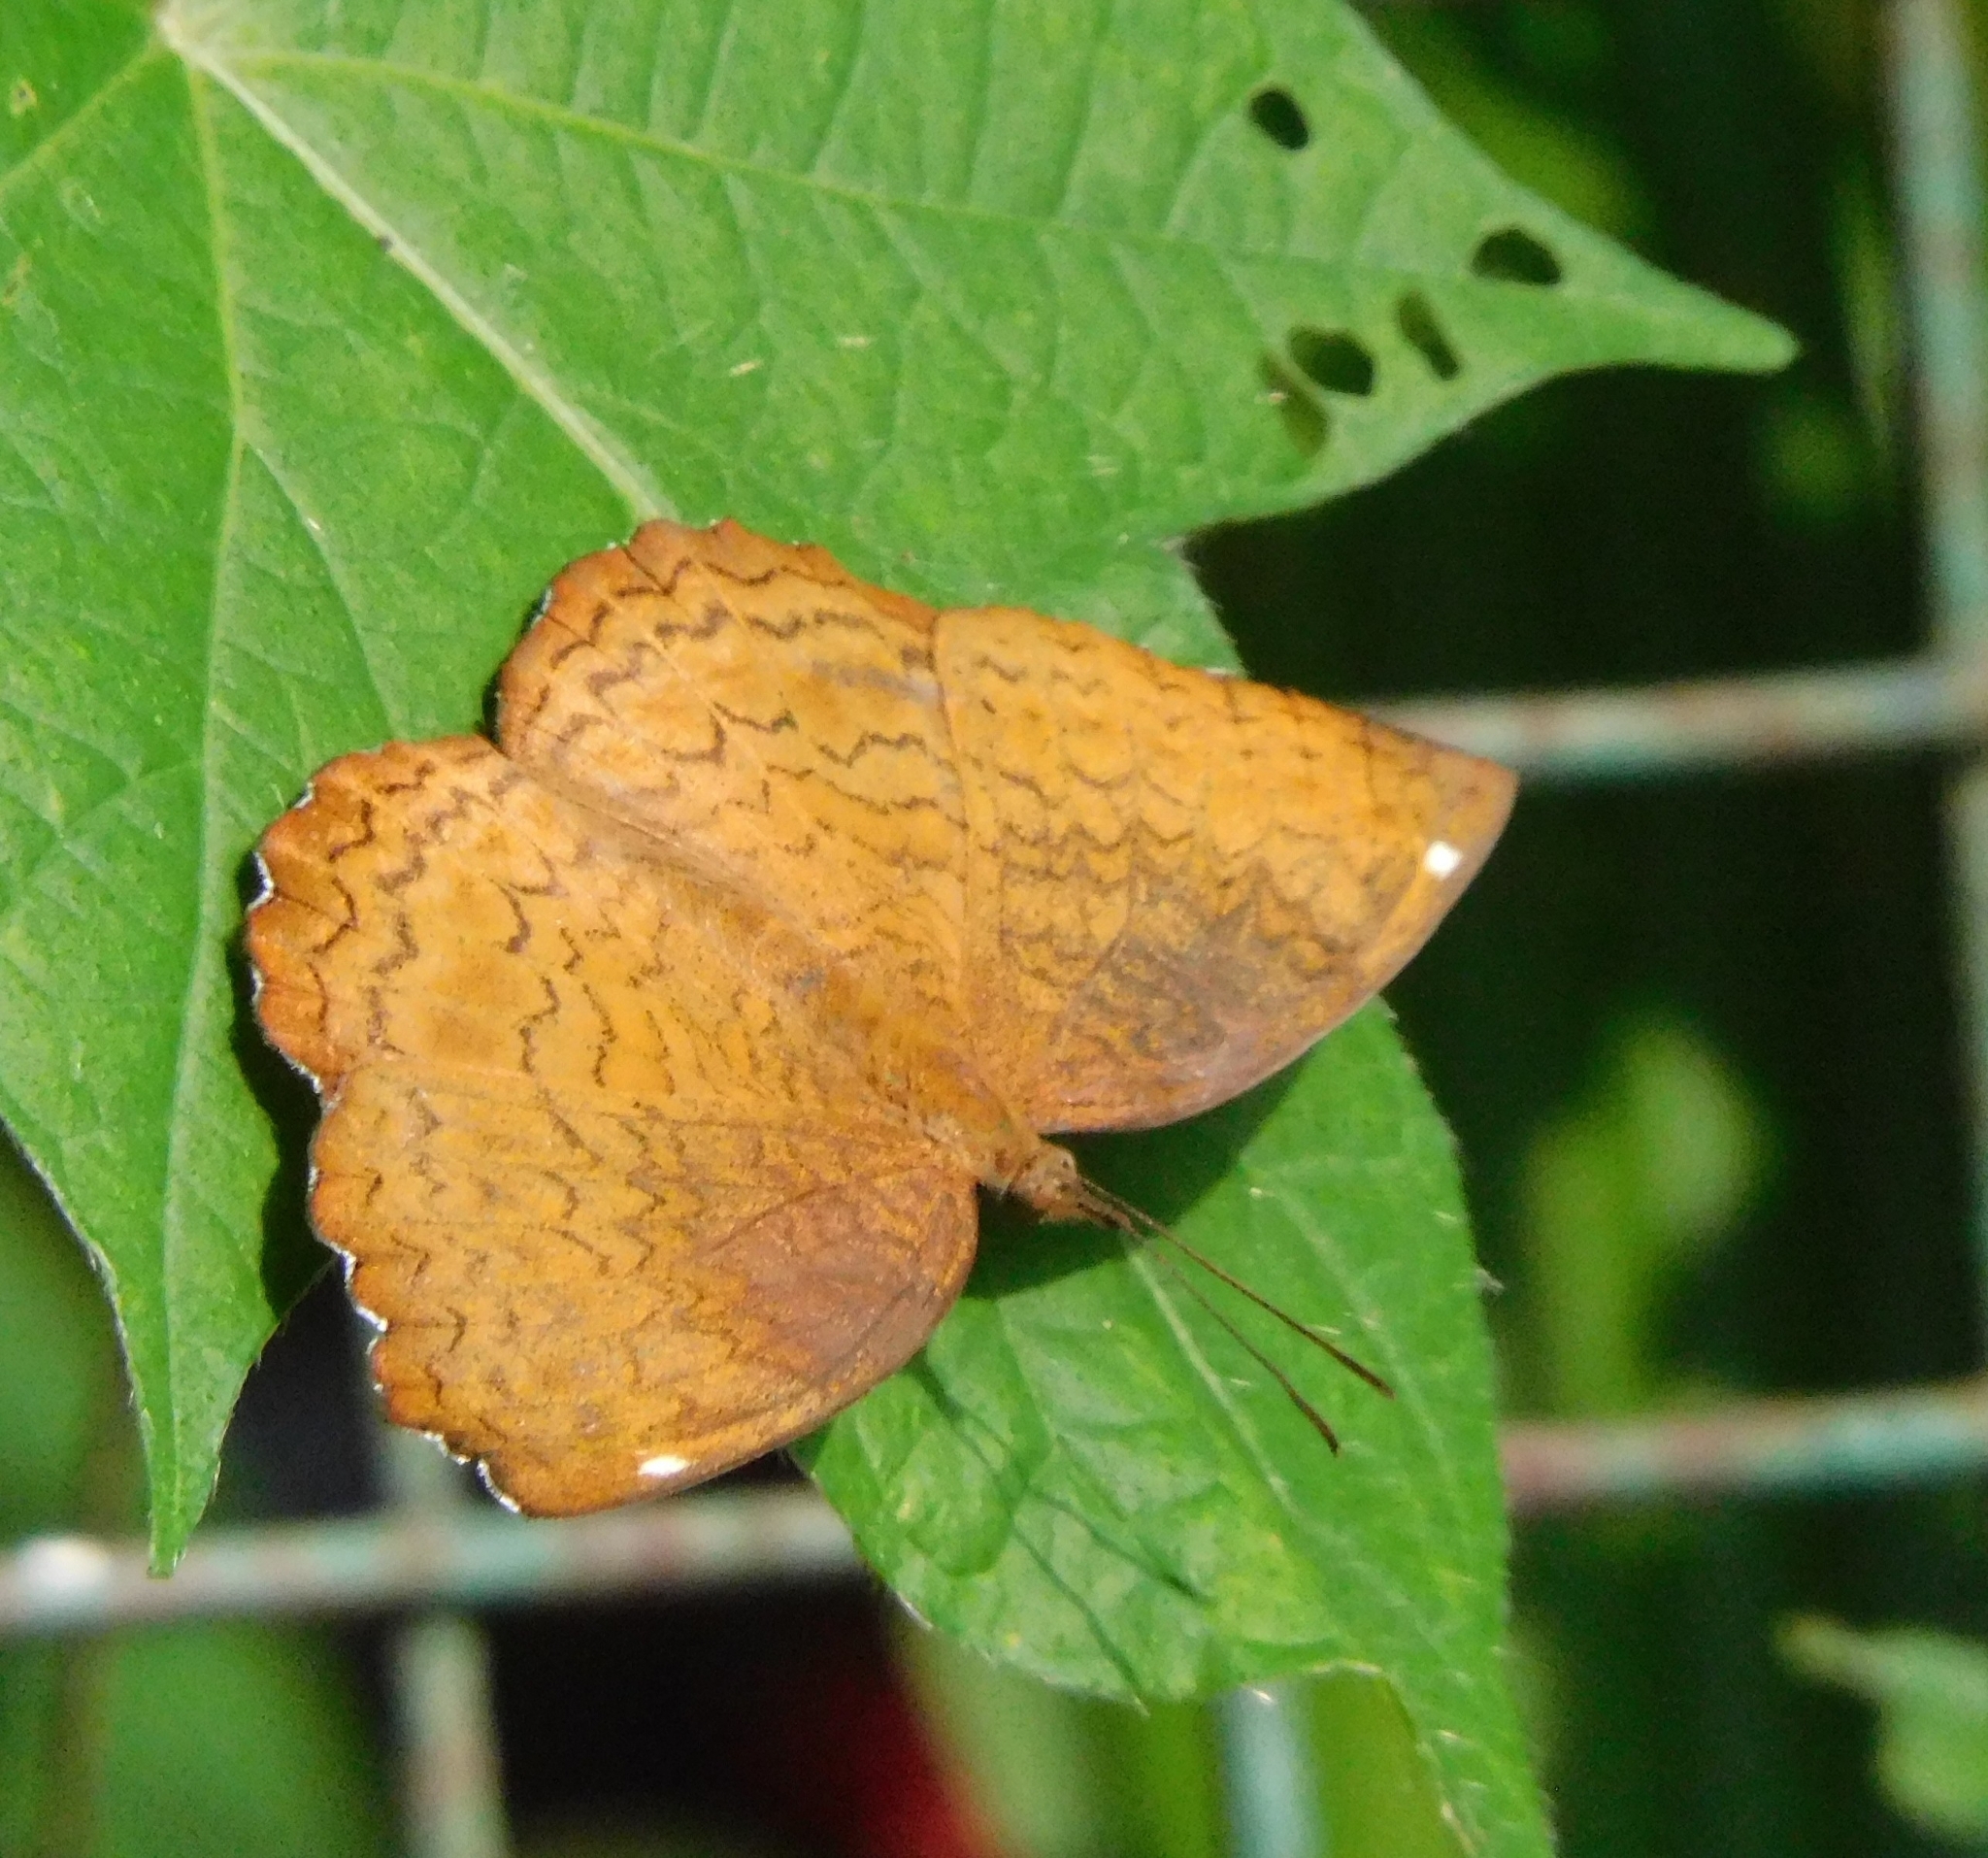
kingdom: Animalia
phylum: Arthropoda
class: Insecta
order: Lepidoptera
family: Nymphalidae
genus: Ariadne
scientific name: Ariadne merione
